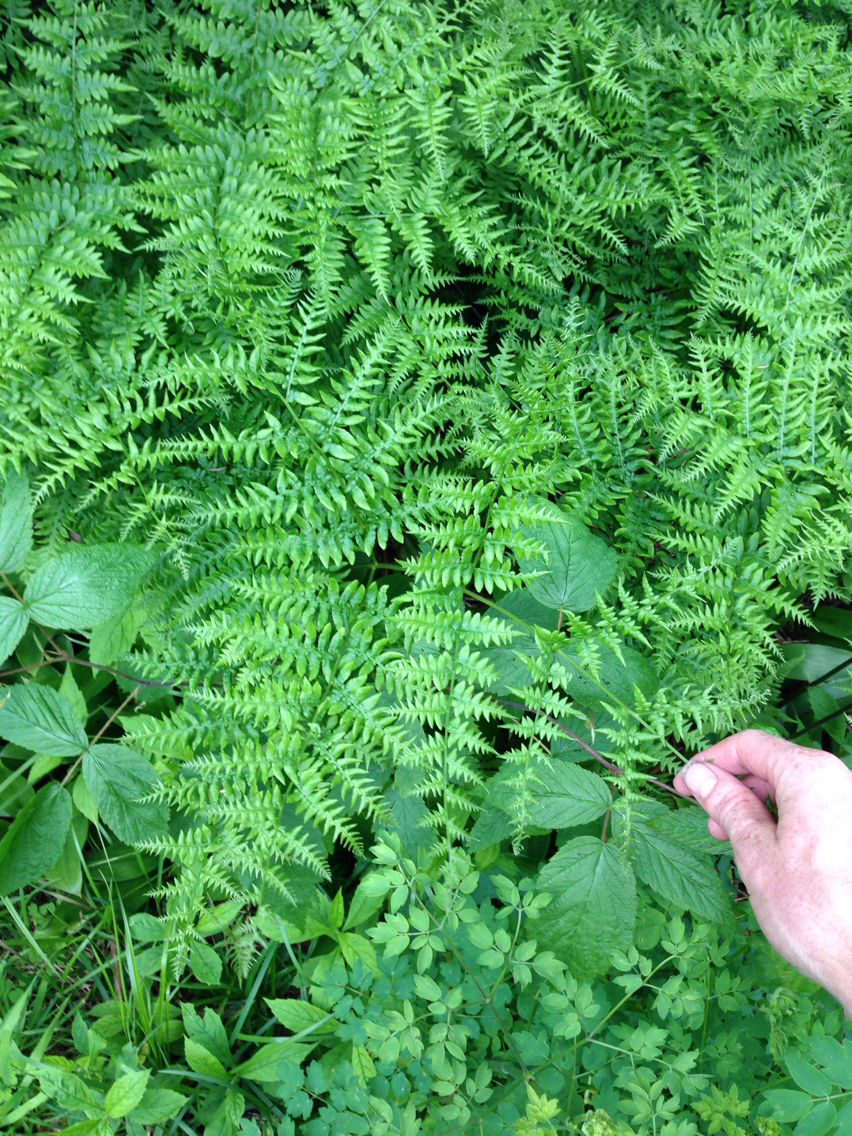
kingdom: Plantae
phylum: Tracheophyta
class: Polypodiopsida
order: Polypodiales
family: Dennstaedtiaceae
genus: Pteridium
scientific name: Pteridium aquilinum
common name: Bracken
